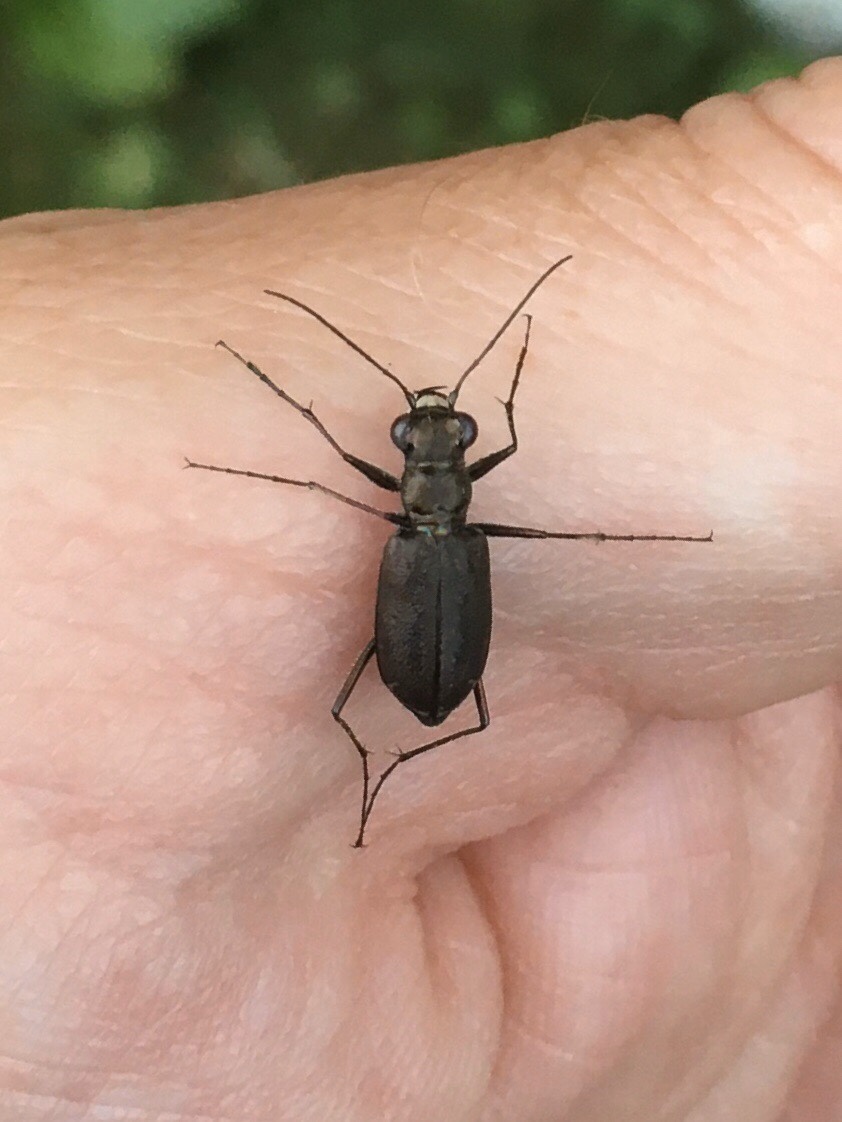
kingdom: Animalia
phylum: Arthropoda
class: Insecta
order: Coleoptera
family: Carabidae
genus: Cicindela
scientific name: Cicindela punctulata
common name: Punctured tiger beetle
